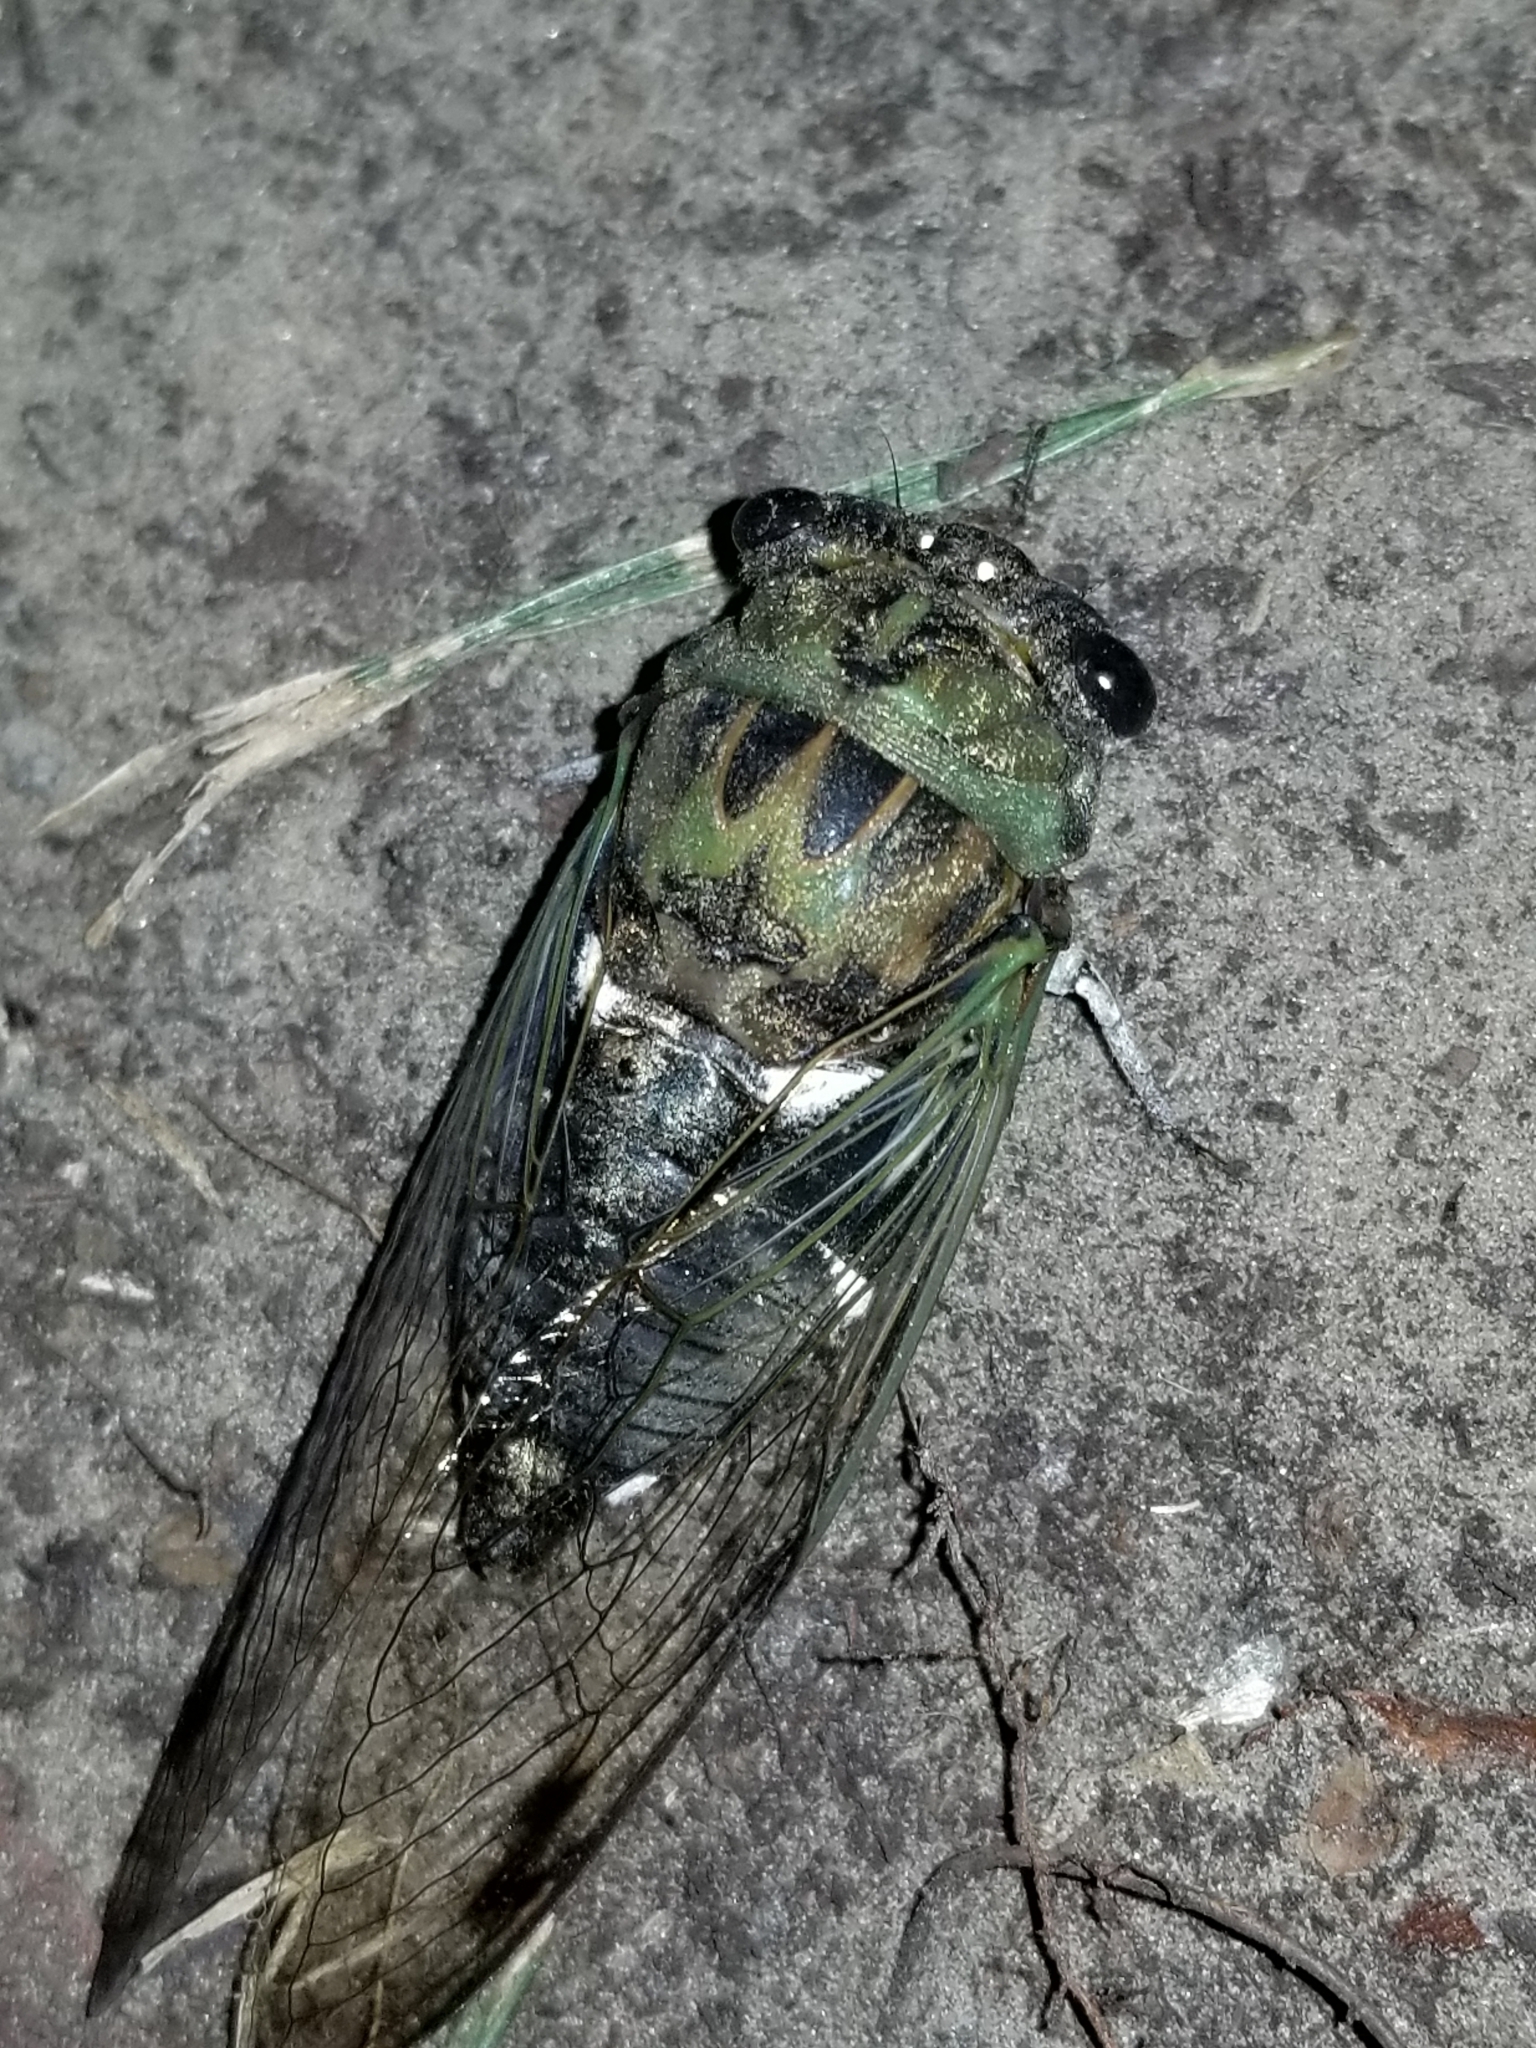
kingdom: Animalia
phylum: Arthropoda
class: Insecta
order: Hemiptera
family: Cicadidae
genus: Neotibicen
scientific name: Neotibicen pruinosus
